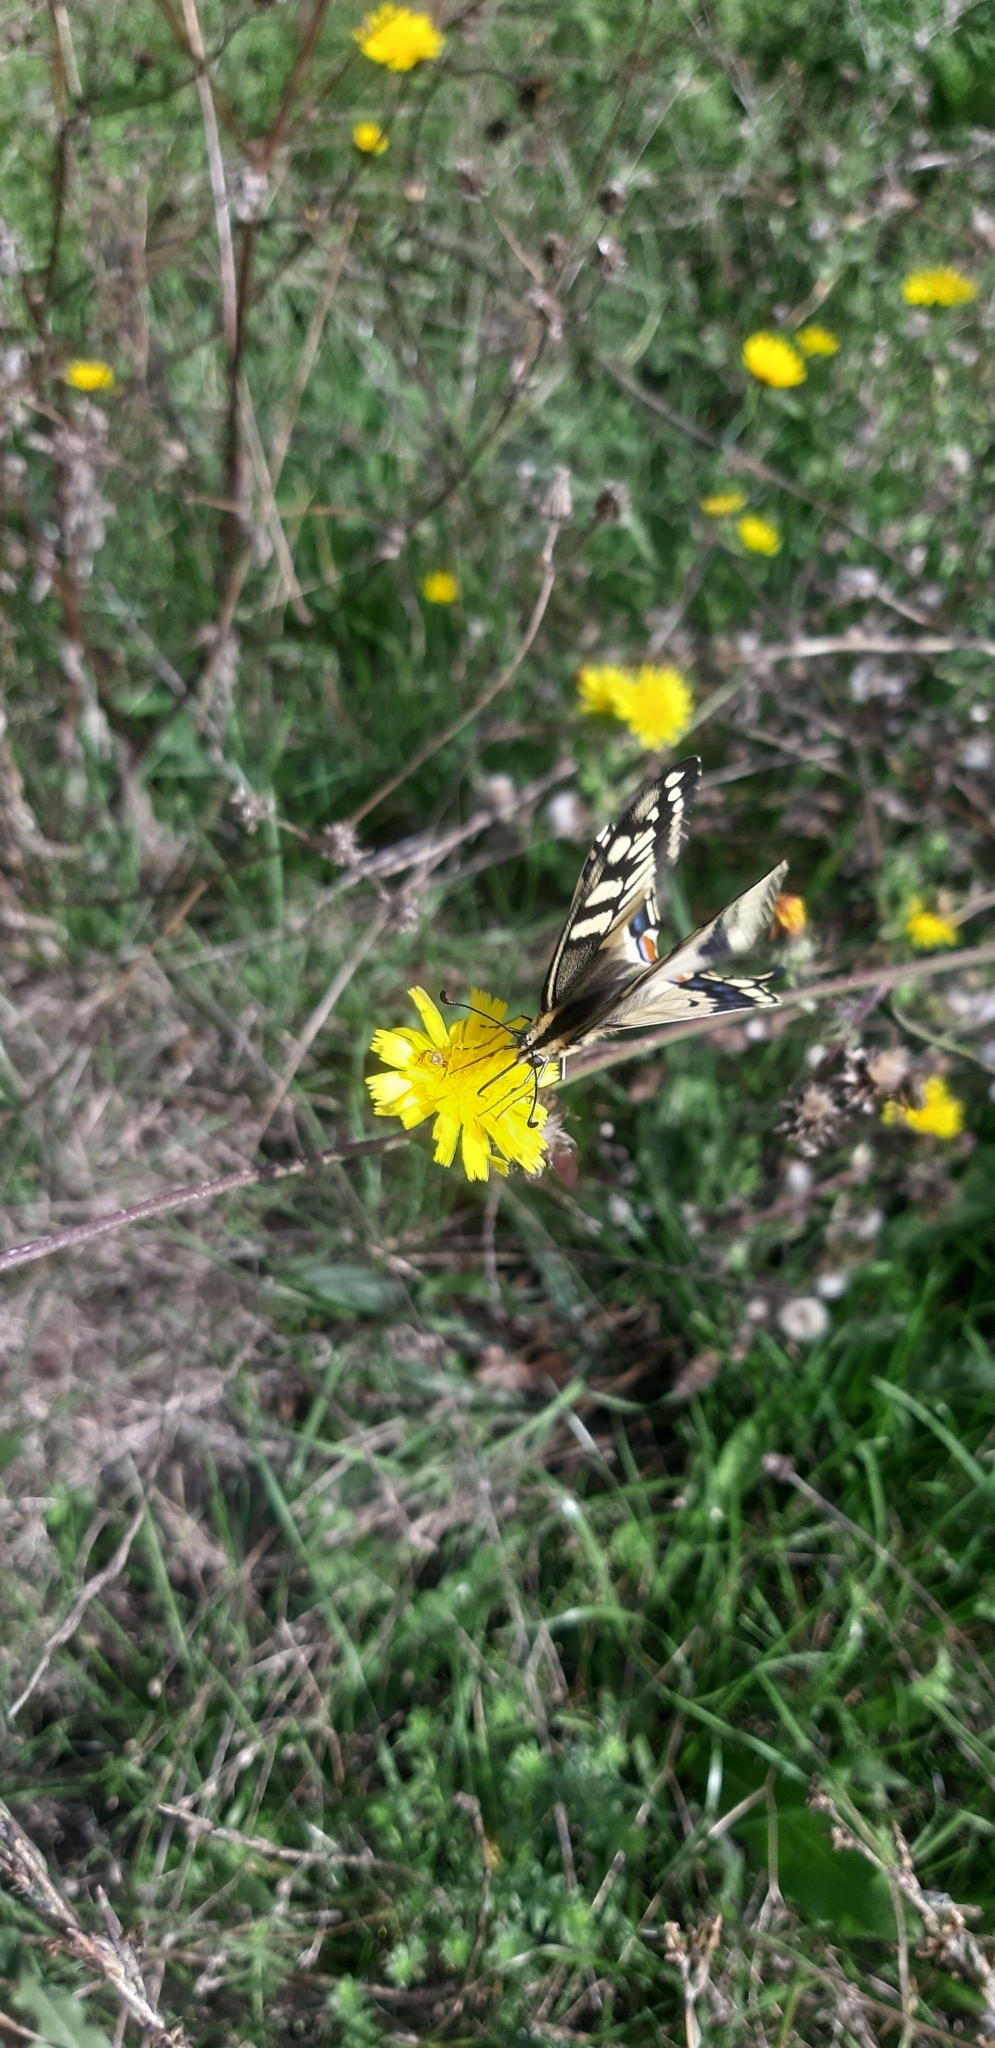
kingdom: Animalia
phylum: Arthropoda
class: Insecta
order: Lepidoptera
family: Papilionidae
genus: Papilio
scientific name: Papilio machaon
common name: Swallowtail
